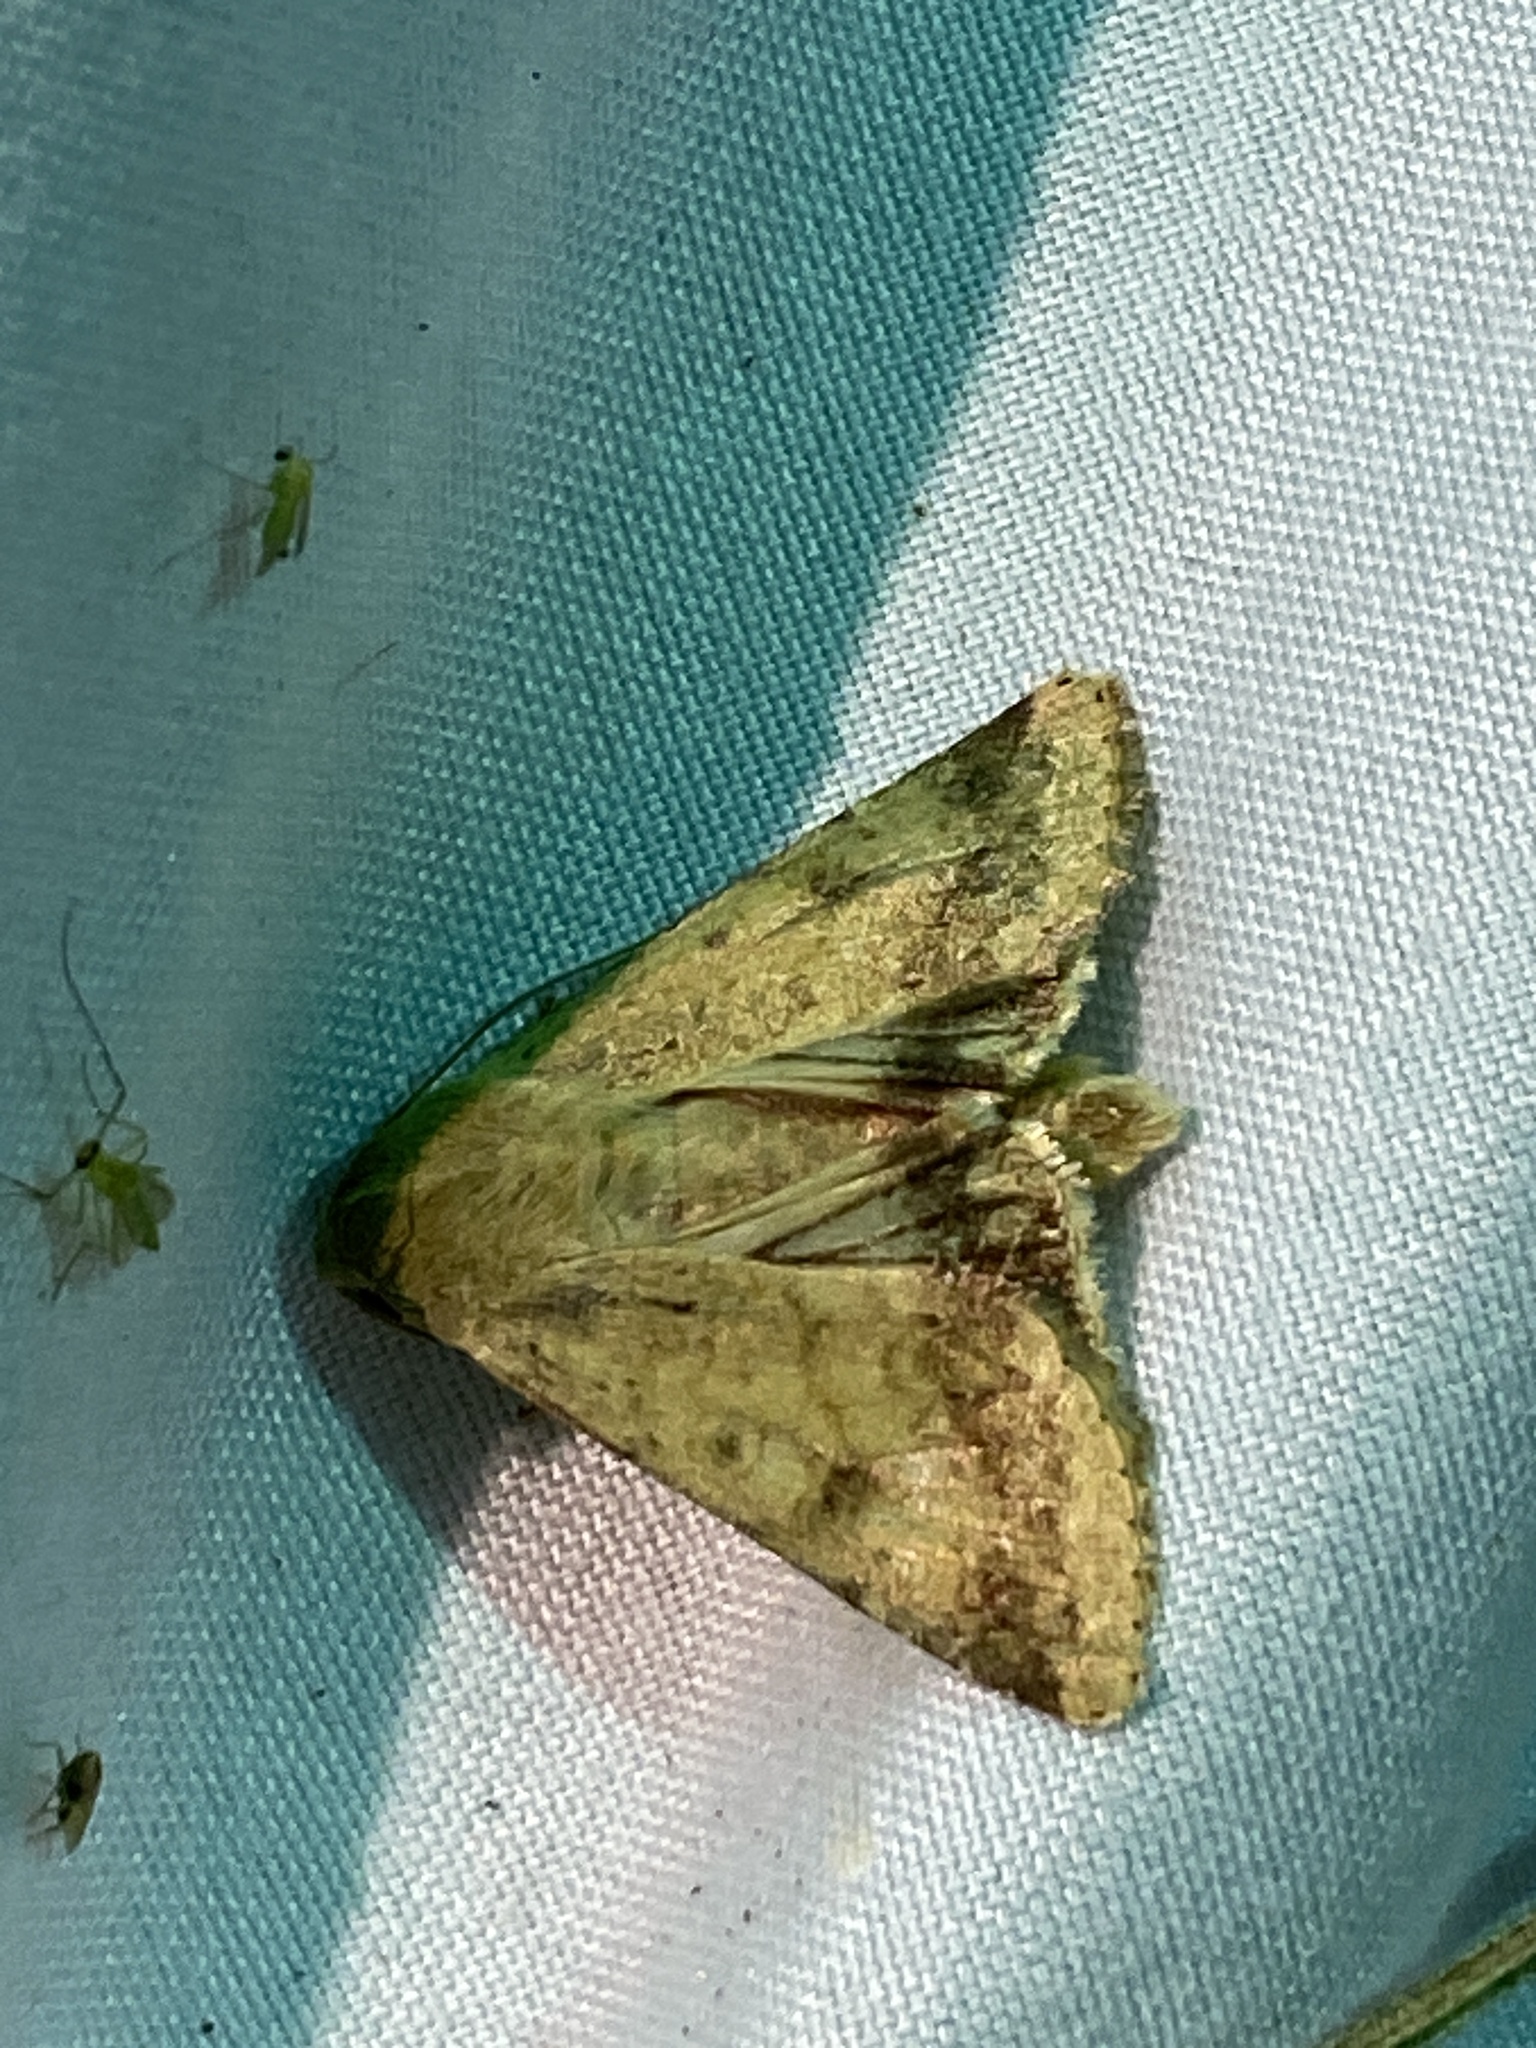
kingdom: Animalia
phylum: Arthropoda
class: Insecta
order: Lepidoptera
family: Noctuidae
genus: Helicoverpa
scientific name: Helicoverpa zea
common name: Bollworm
